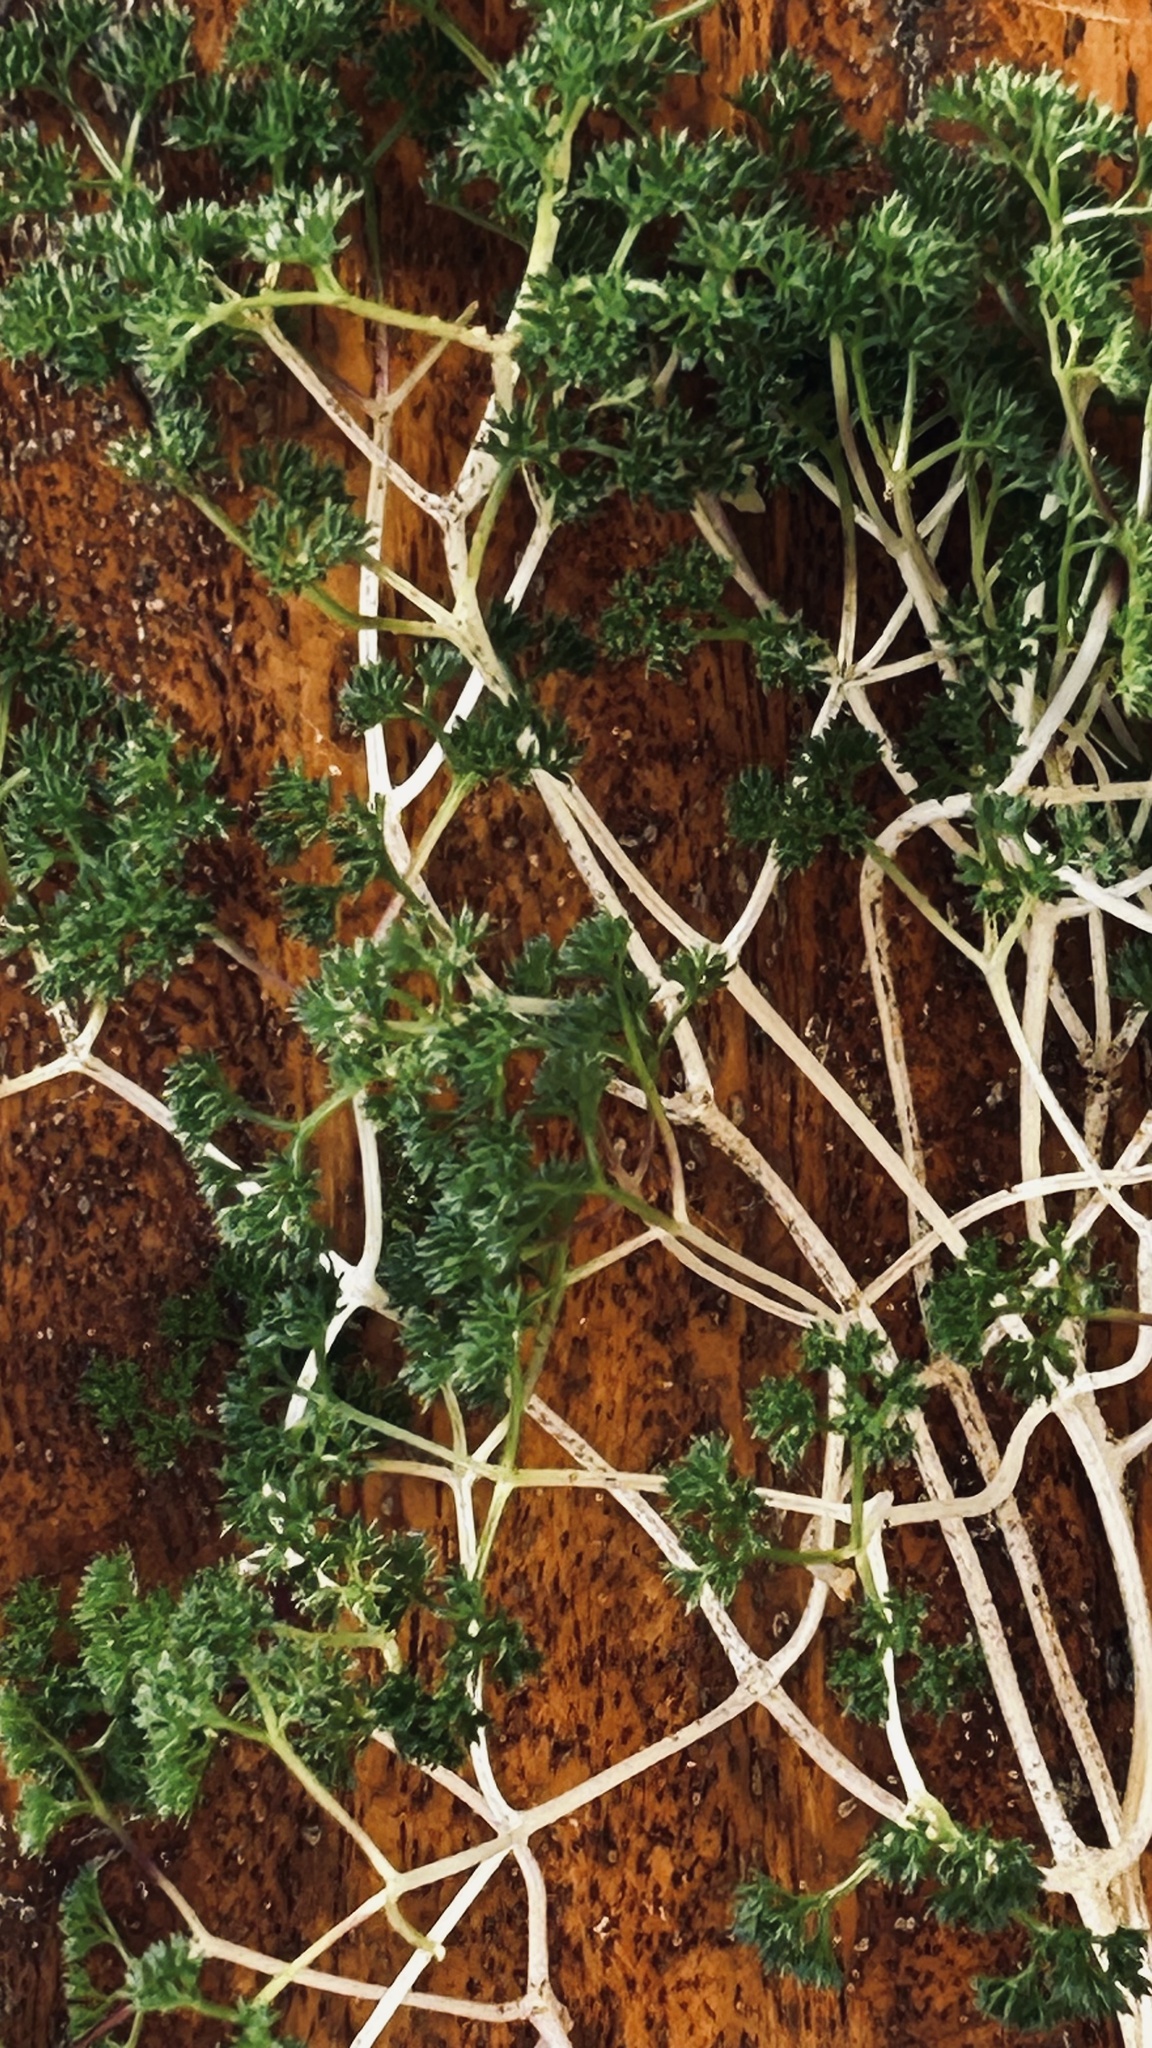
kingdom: Plantae
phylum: Tracheophyta
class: Magnoliopsida
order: Apiales
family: Apiaceae
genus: Annesorhiza
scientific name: Annesorhiza macrocarpa
